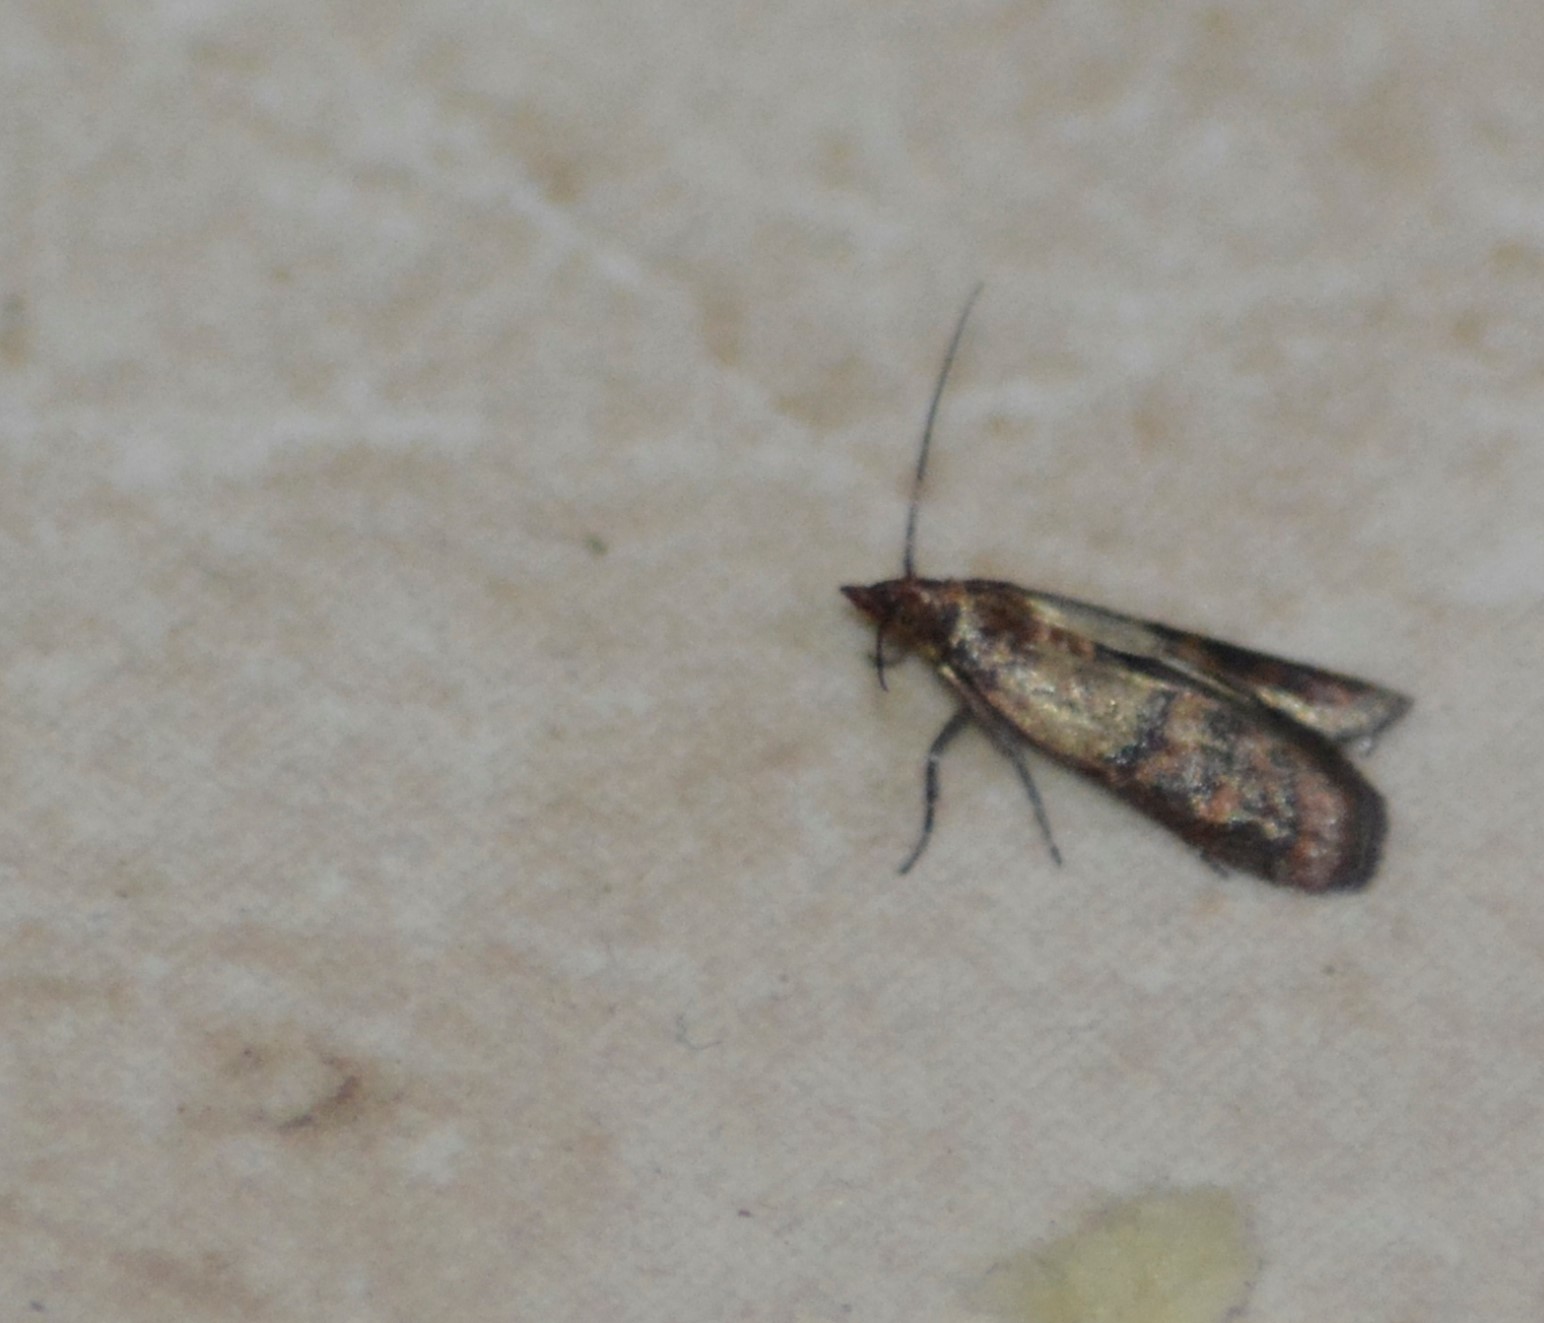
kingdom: Animalia
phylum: Arthropoda
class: Insecta
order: Lepidoptera
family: Pyralidae
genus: Plodia
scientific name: Plodia interpunctella
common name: Indian meal moth
